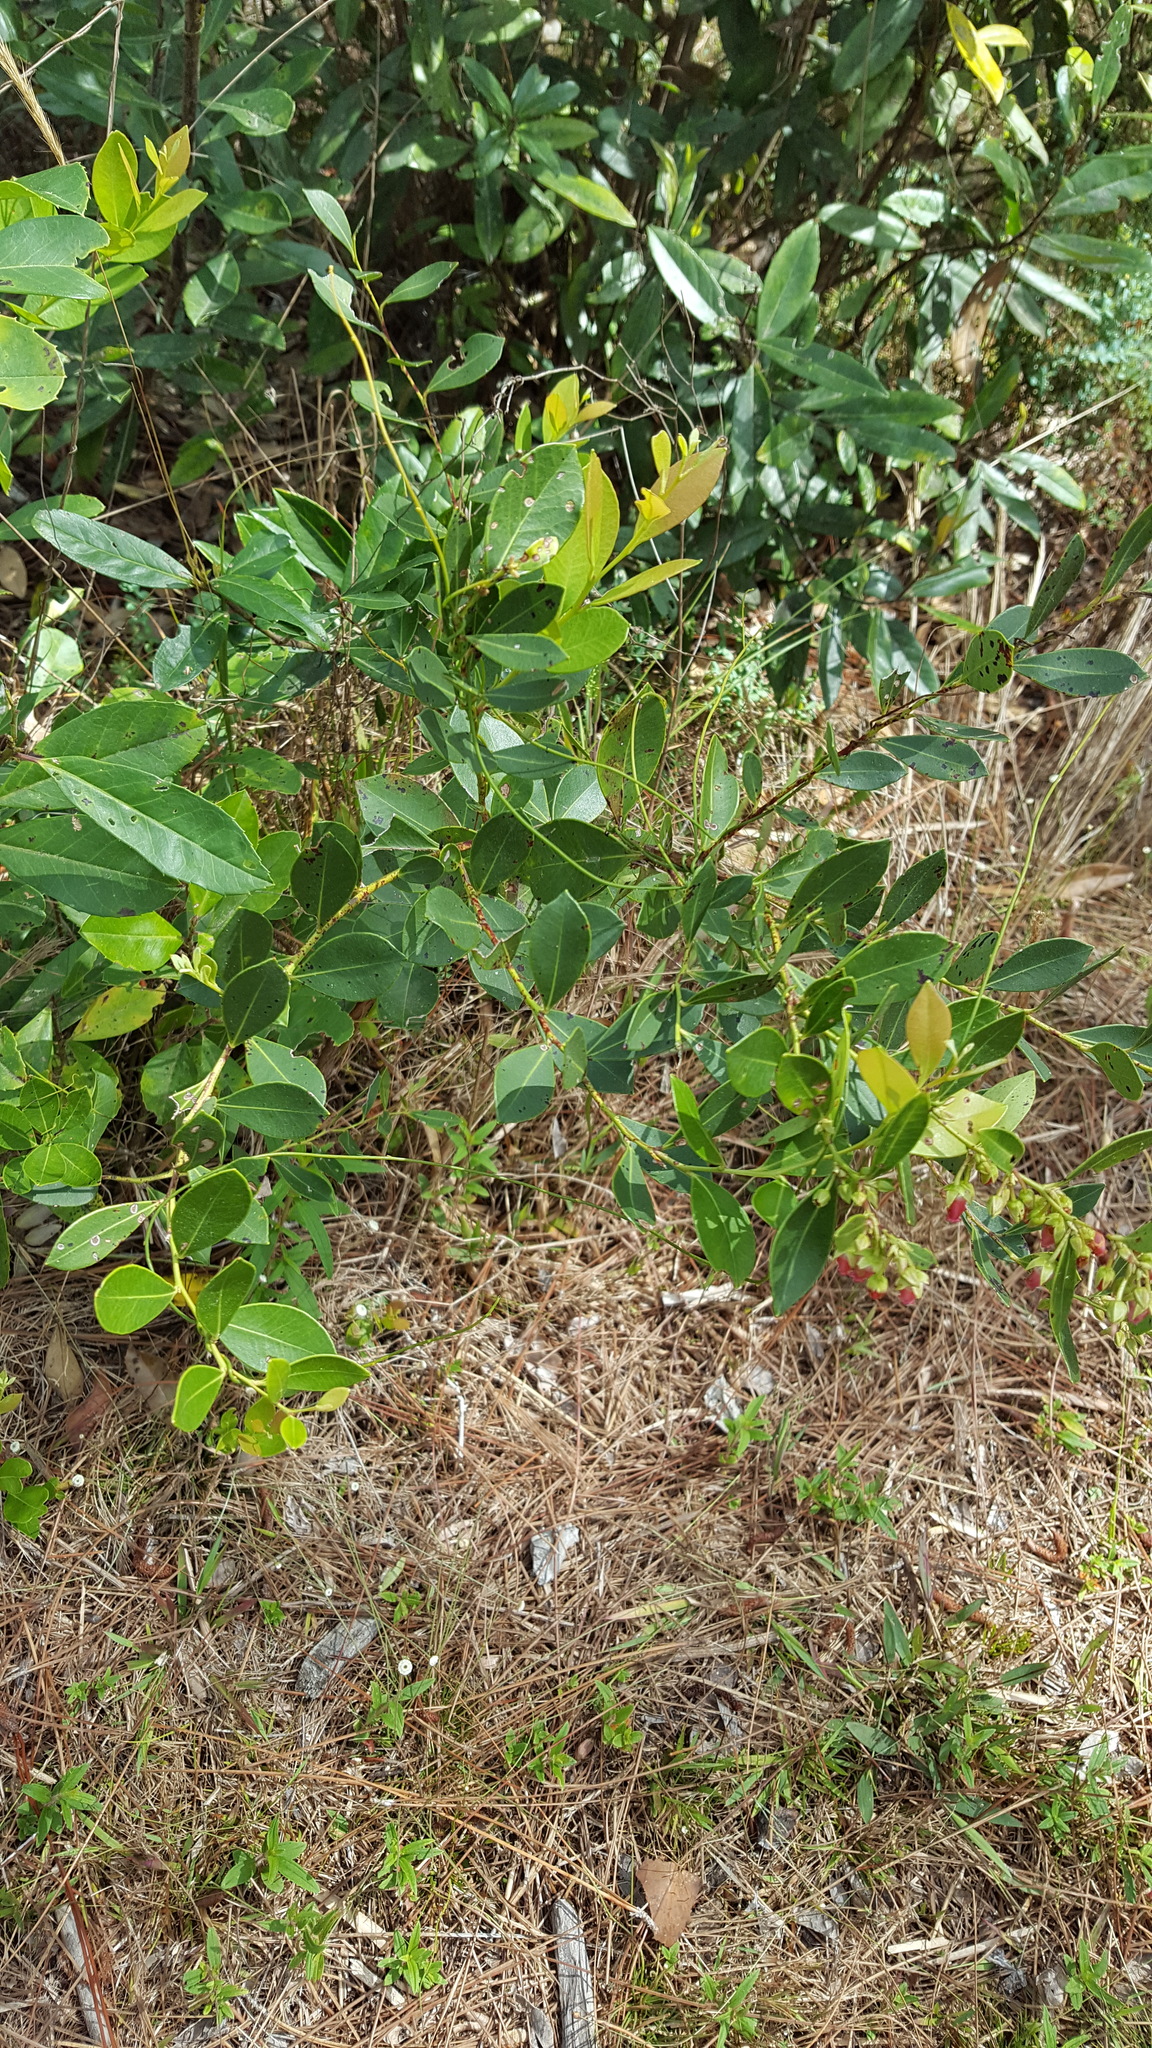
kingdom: Plantae
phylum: Tracheophyta
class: Magnoliopsida
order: Ericales
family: Ericaceae
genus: Lyonia
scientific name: Lyonia lucida
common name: Fetterbush
